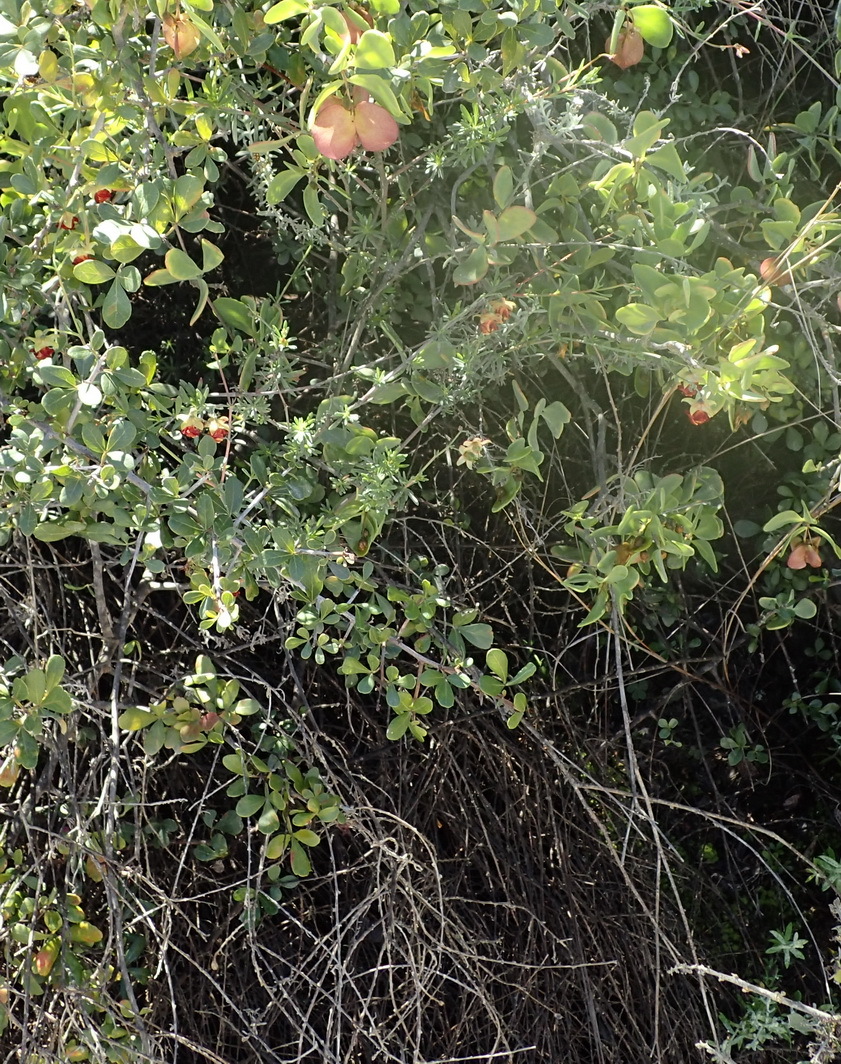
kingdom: Plantae
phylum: Tracheophyta
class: Magnoliopsida
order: Malvales
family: Malvaceae
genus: Hermannia
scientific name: Hermannia filifolia
